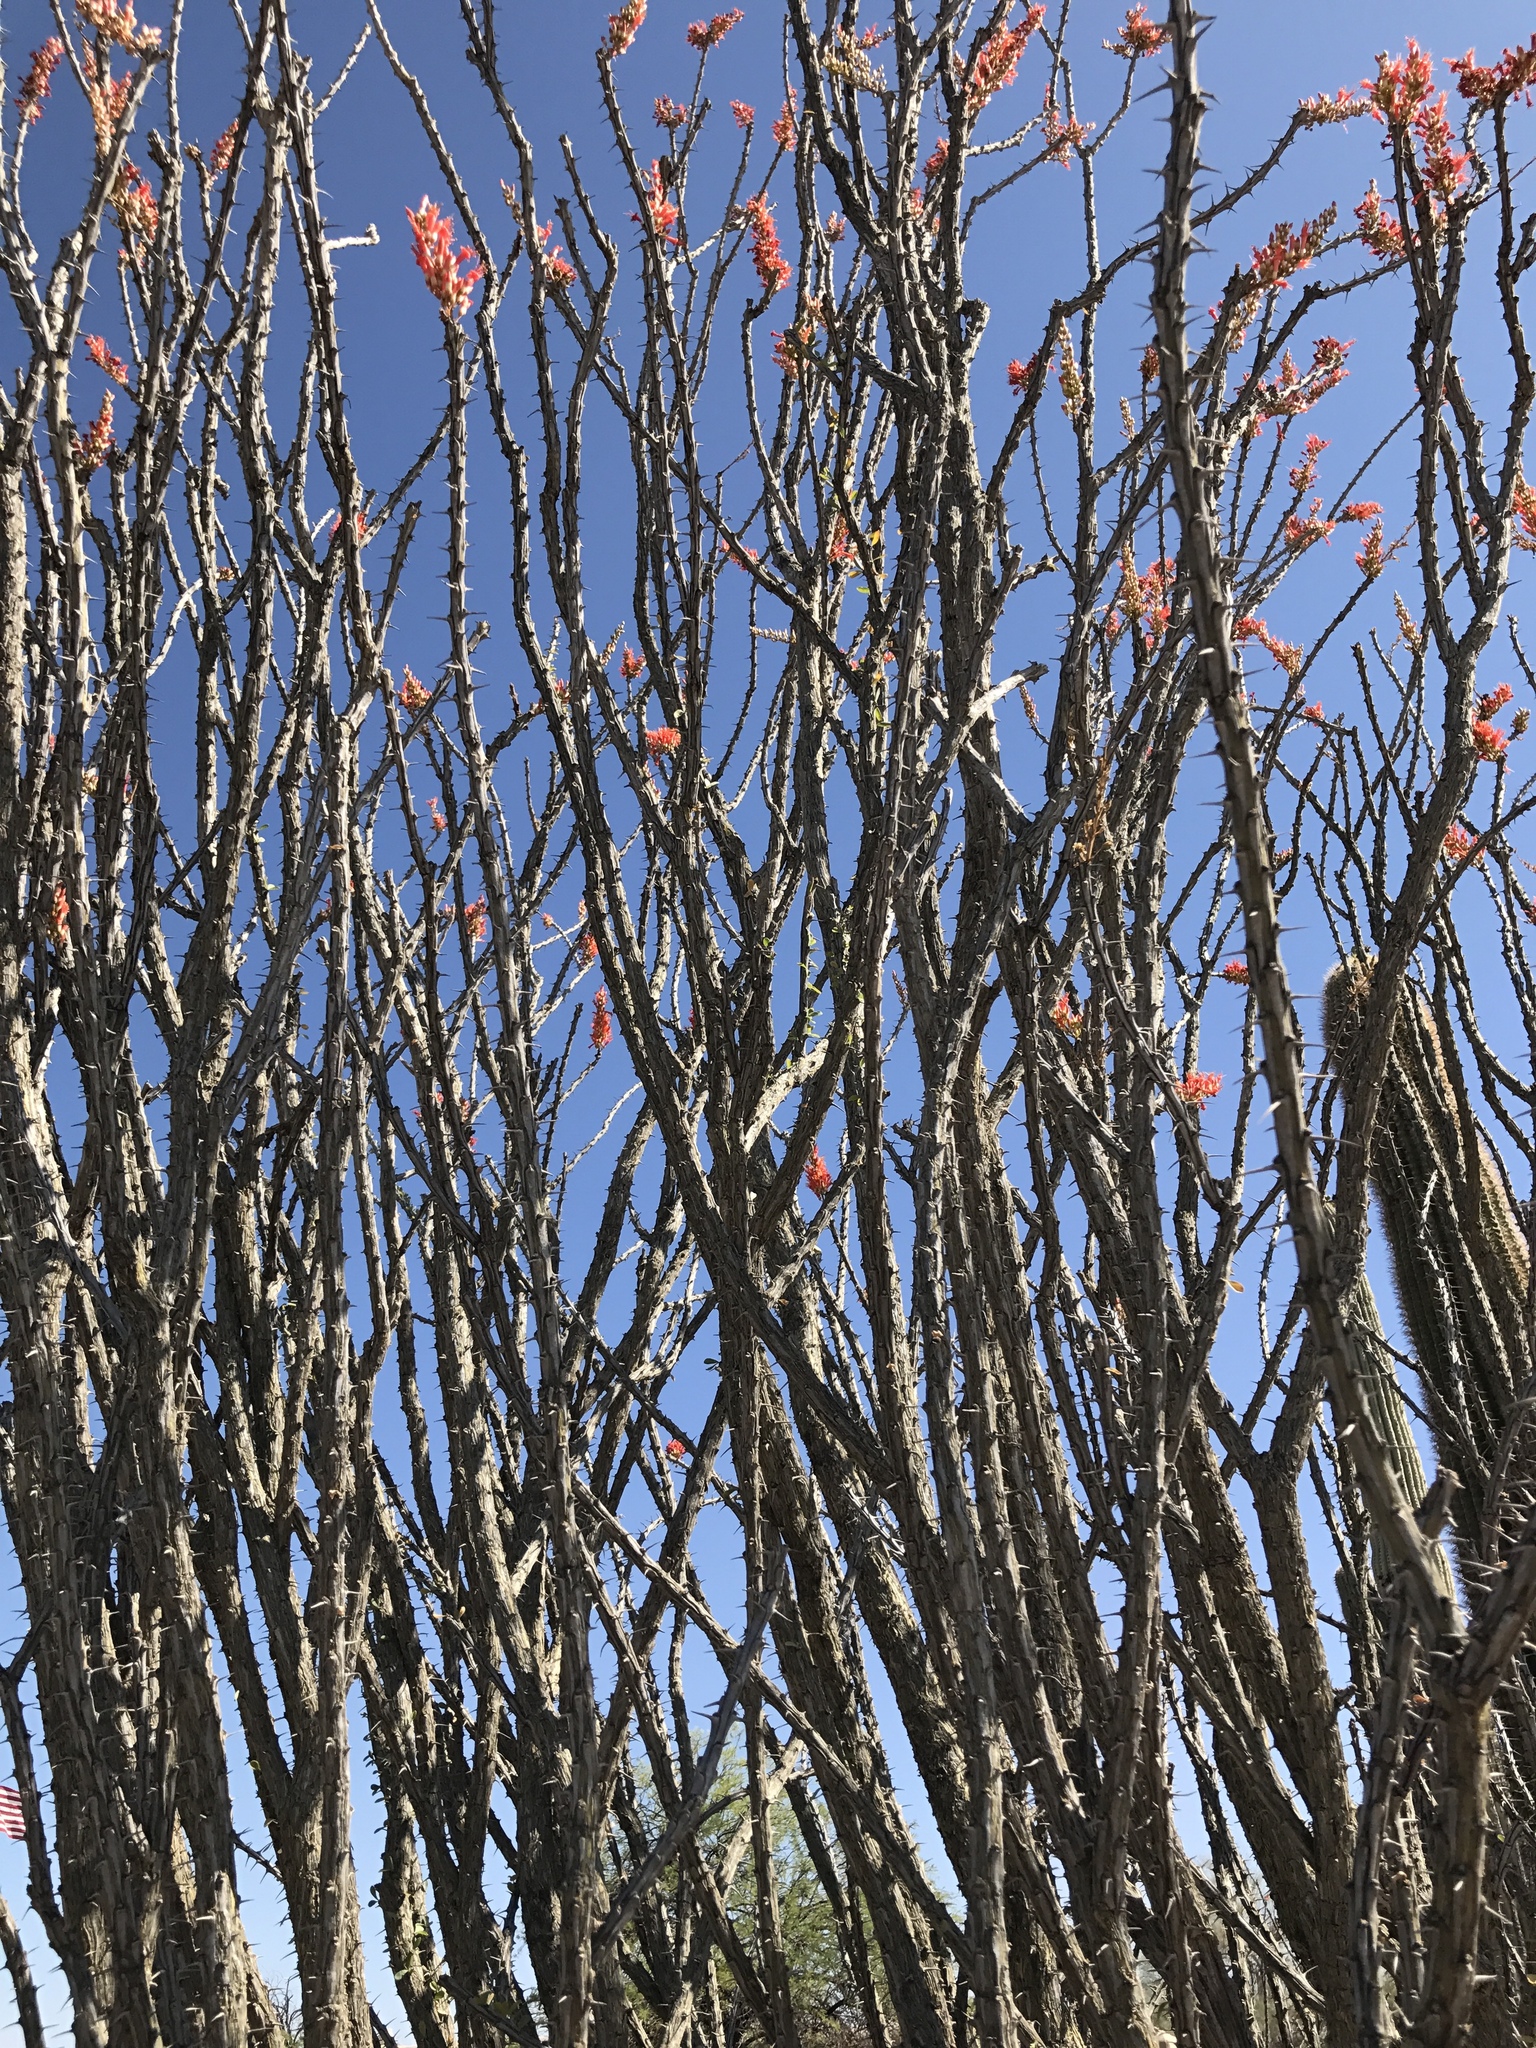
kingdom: Plantae
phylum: Tracheophyta
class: Magnoliopsida
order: Ericales
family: Fouquieriaceae
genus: Fouquieria
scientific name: Fouquieria splendens
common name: Vine-cactus
